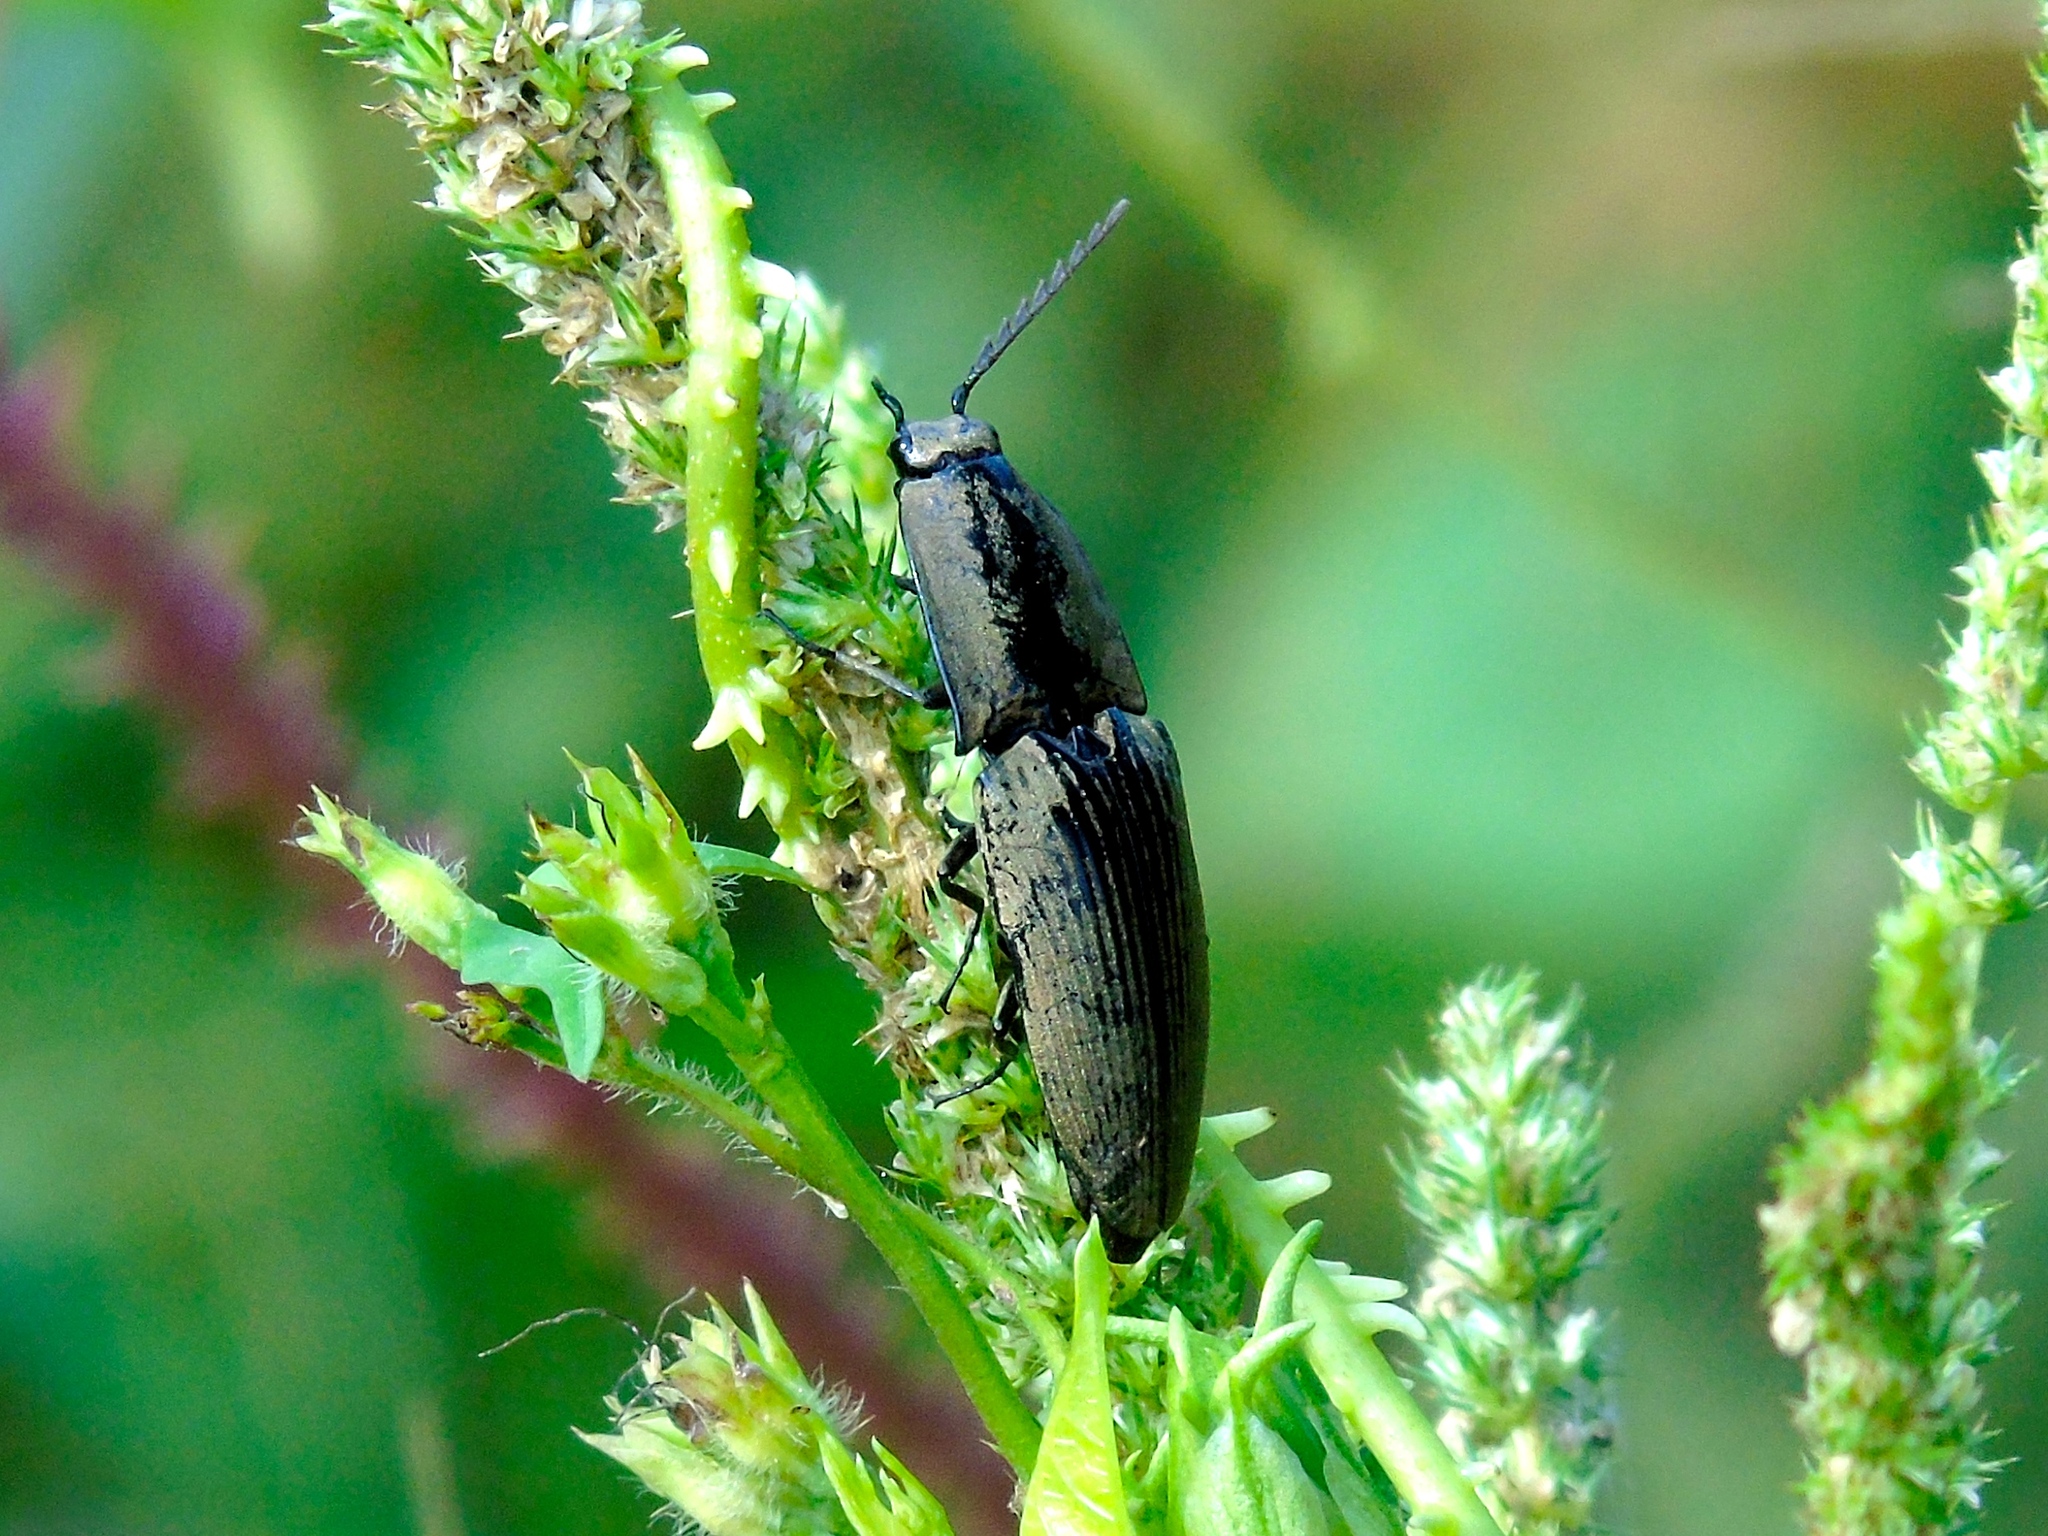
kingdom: Animalia
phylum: Arthropoda
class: Insecta
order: Coleoptera
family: Elateridae
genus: Chalcolepidius
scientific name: Chalcolepidius
